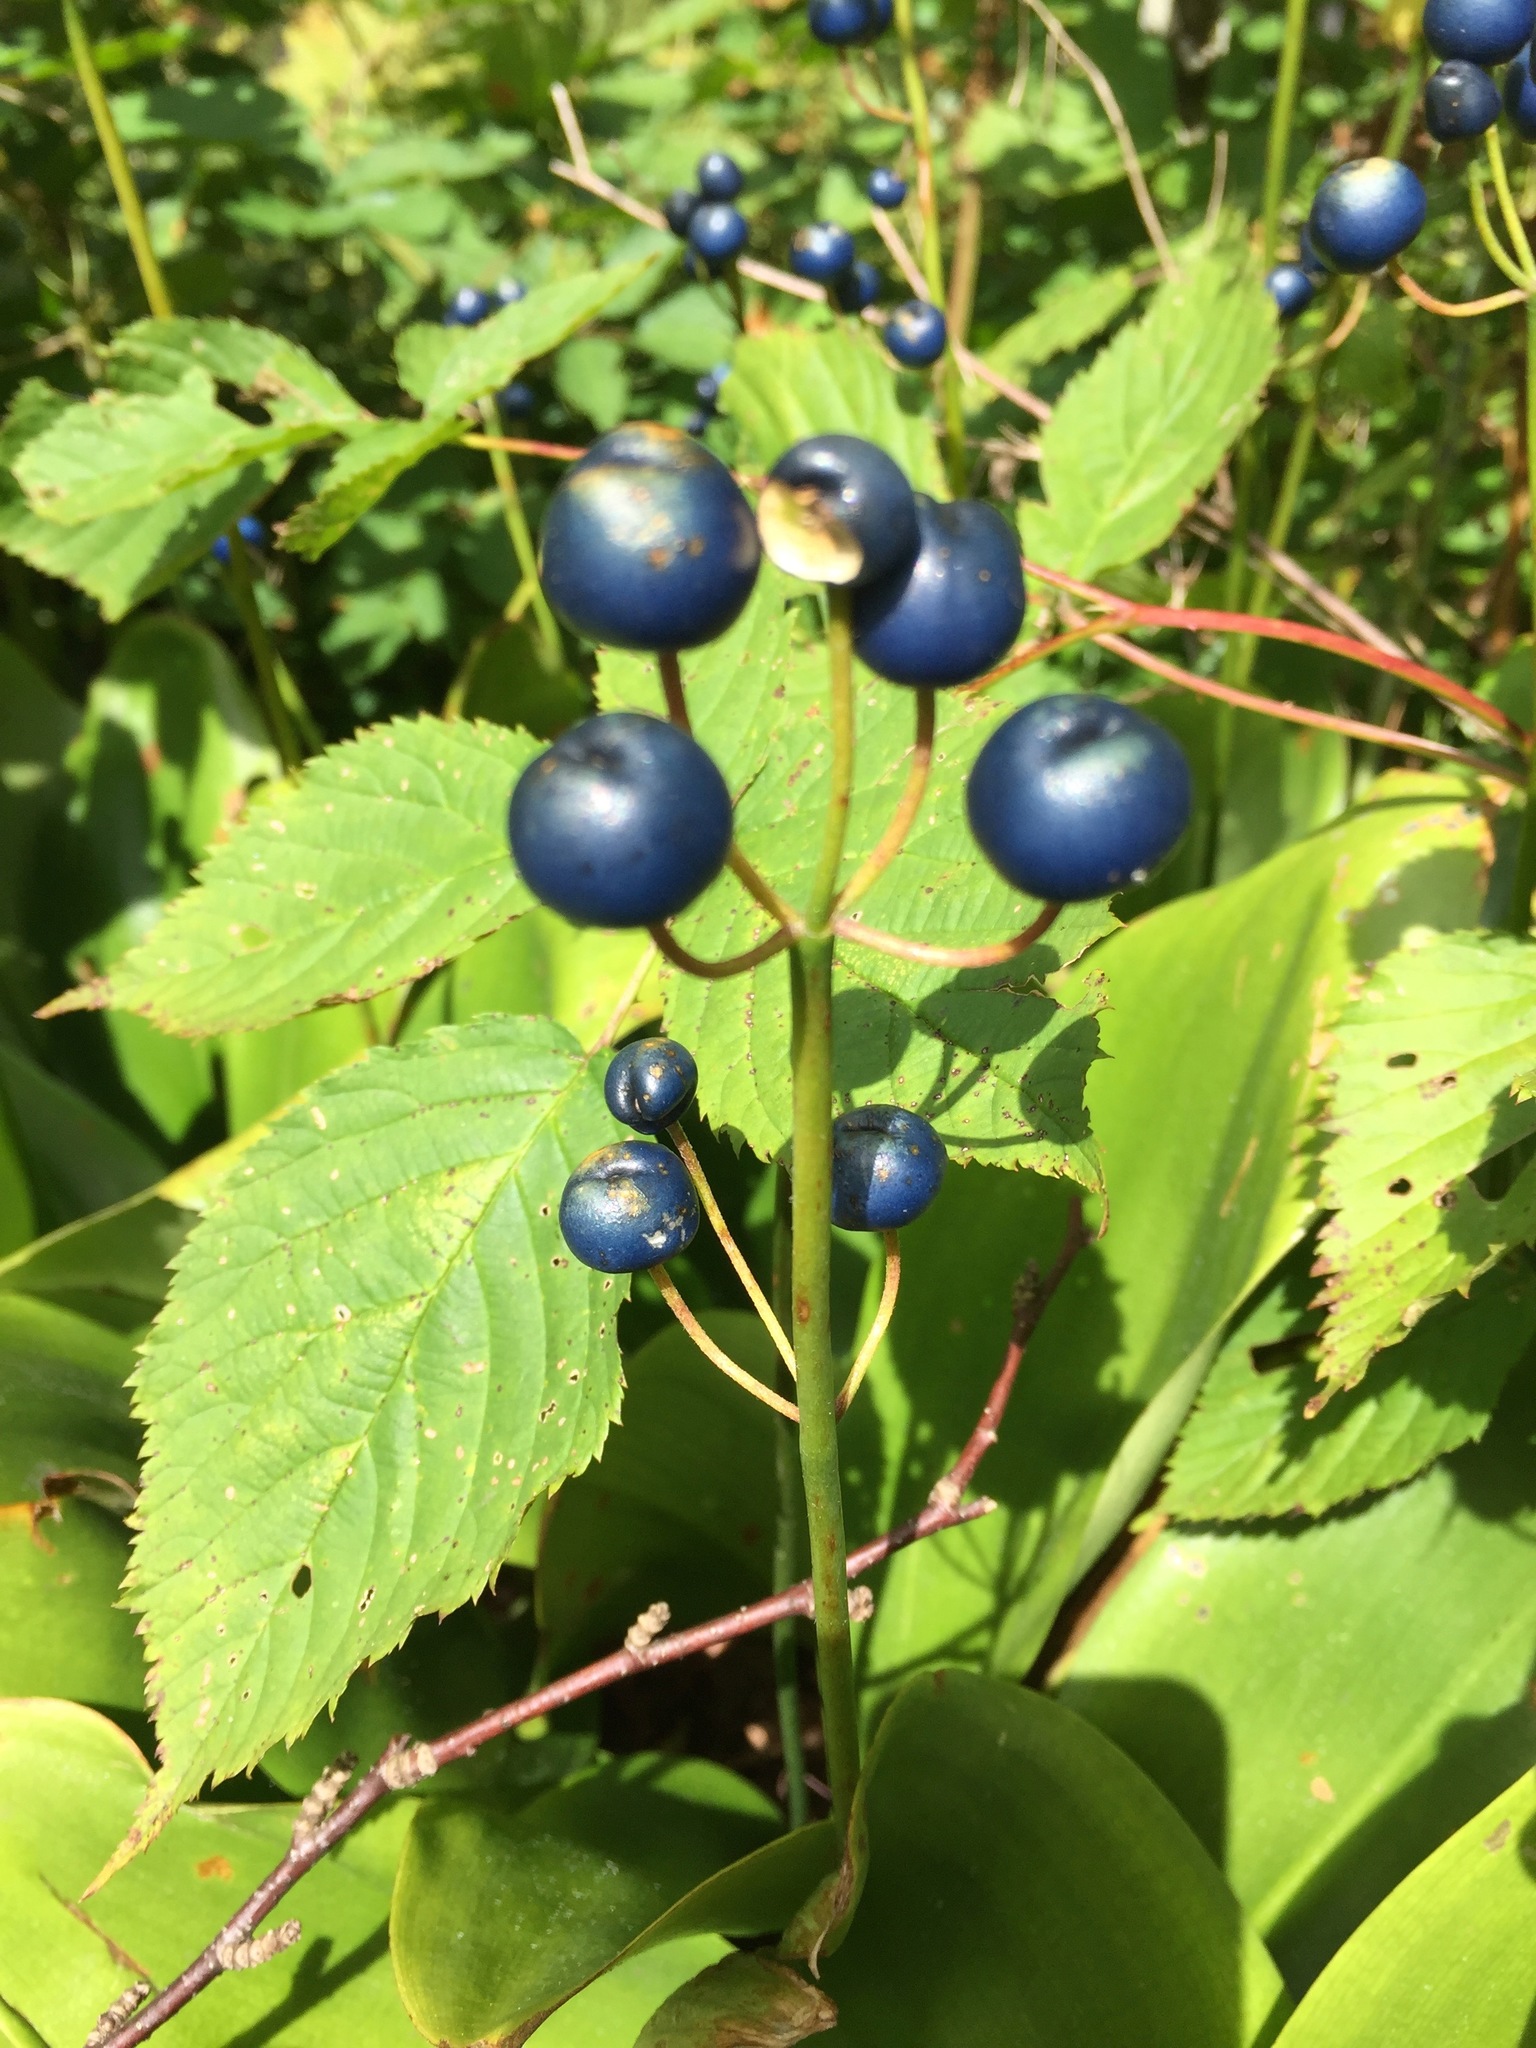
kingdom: Plantae
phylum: Tracheophyta
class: Liliopsida
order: Liliales
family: Liliaceae
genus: Clintonia
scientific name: Clintonia borealis
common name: Yellow clintonia
